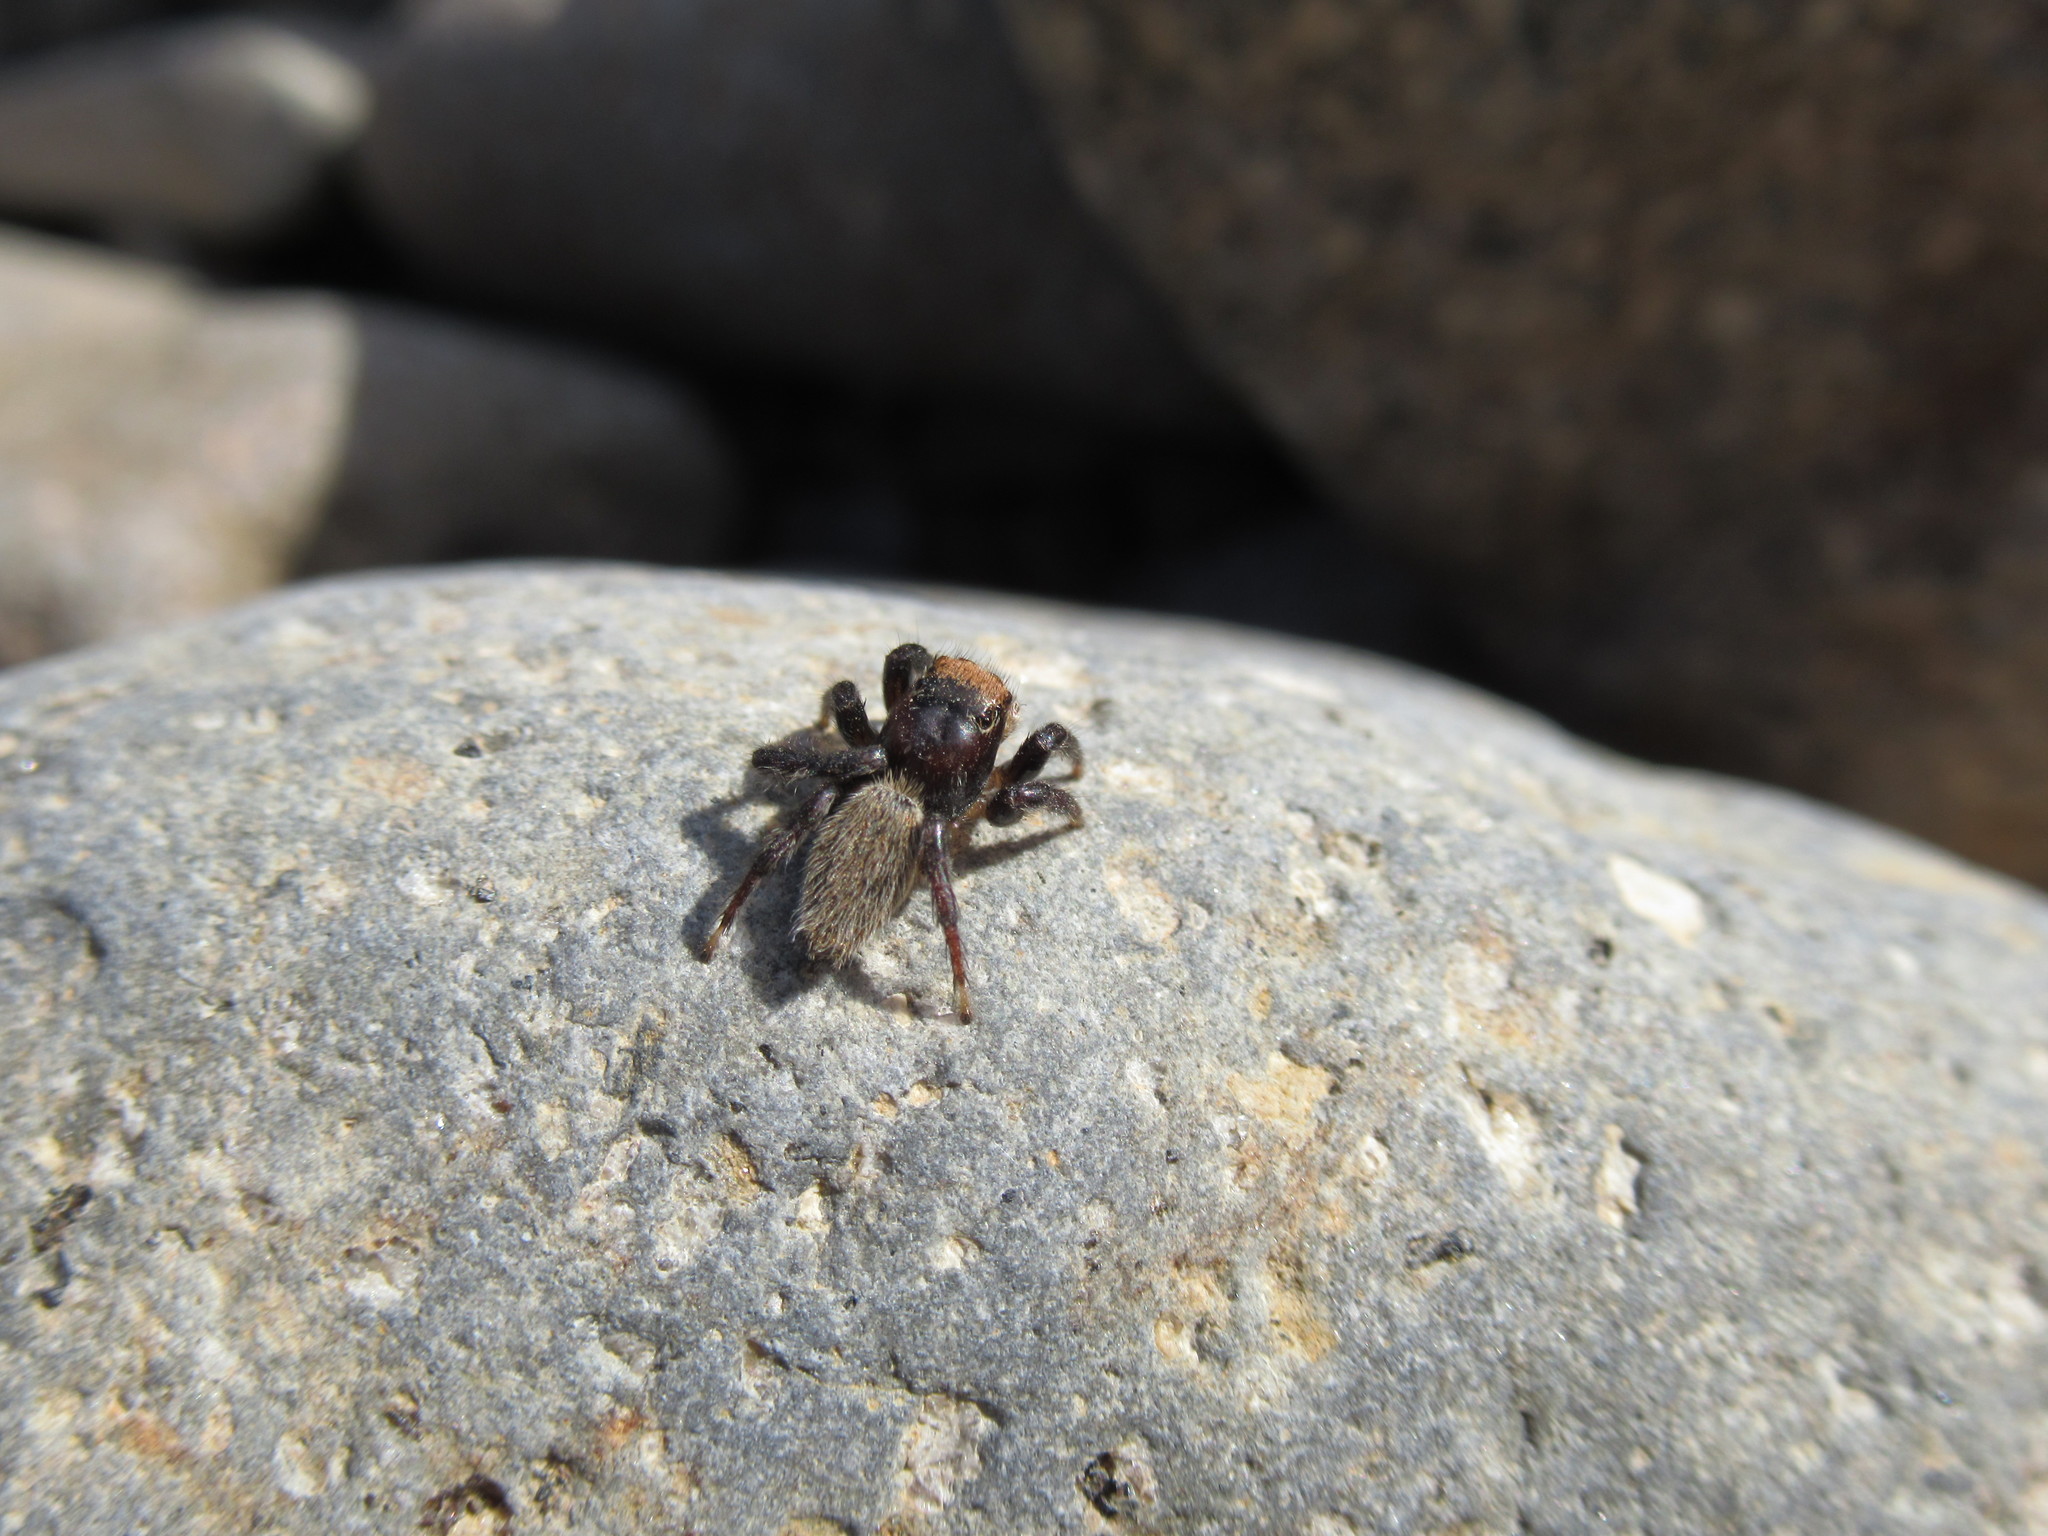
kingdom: Animalia
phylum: Arthropoda
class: Arachnida
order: Araneae
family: Salticidae
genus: Maratus
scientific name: Maratus griseus
